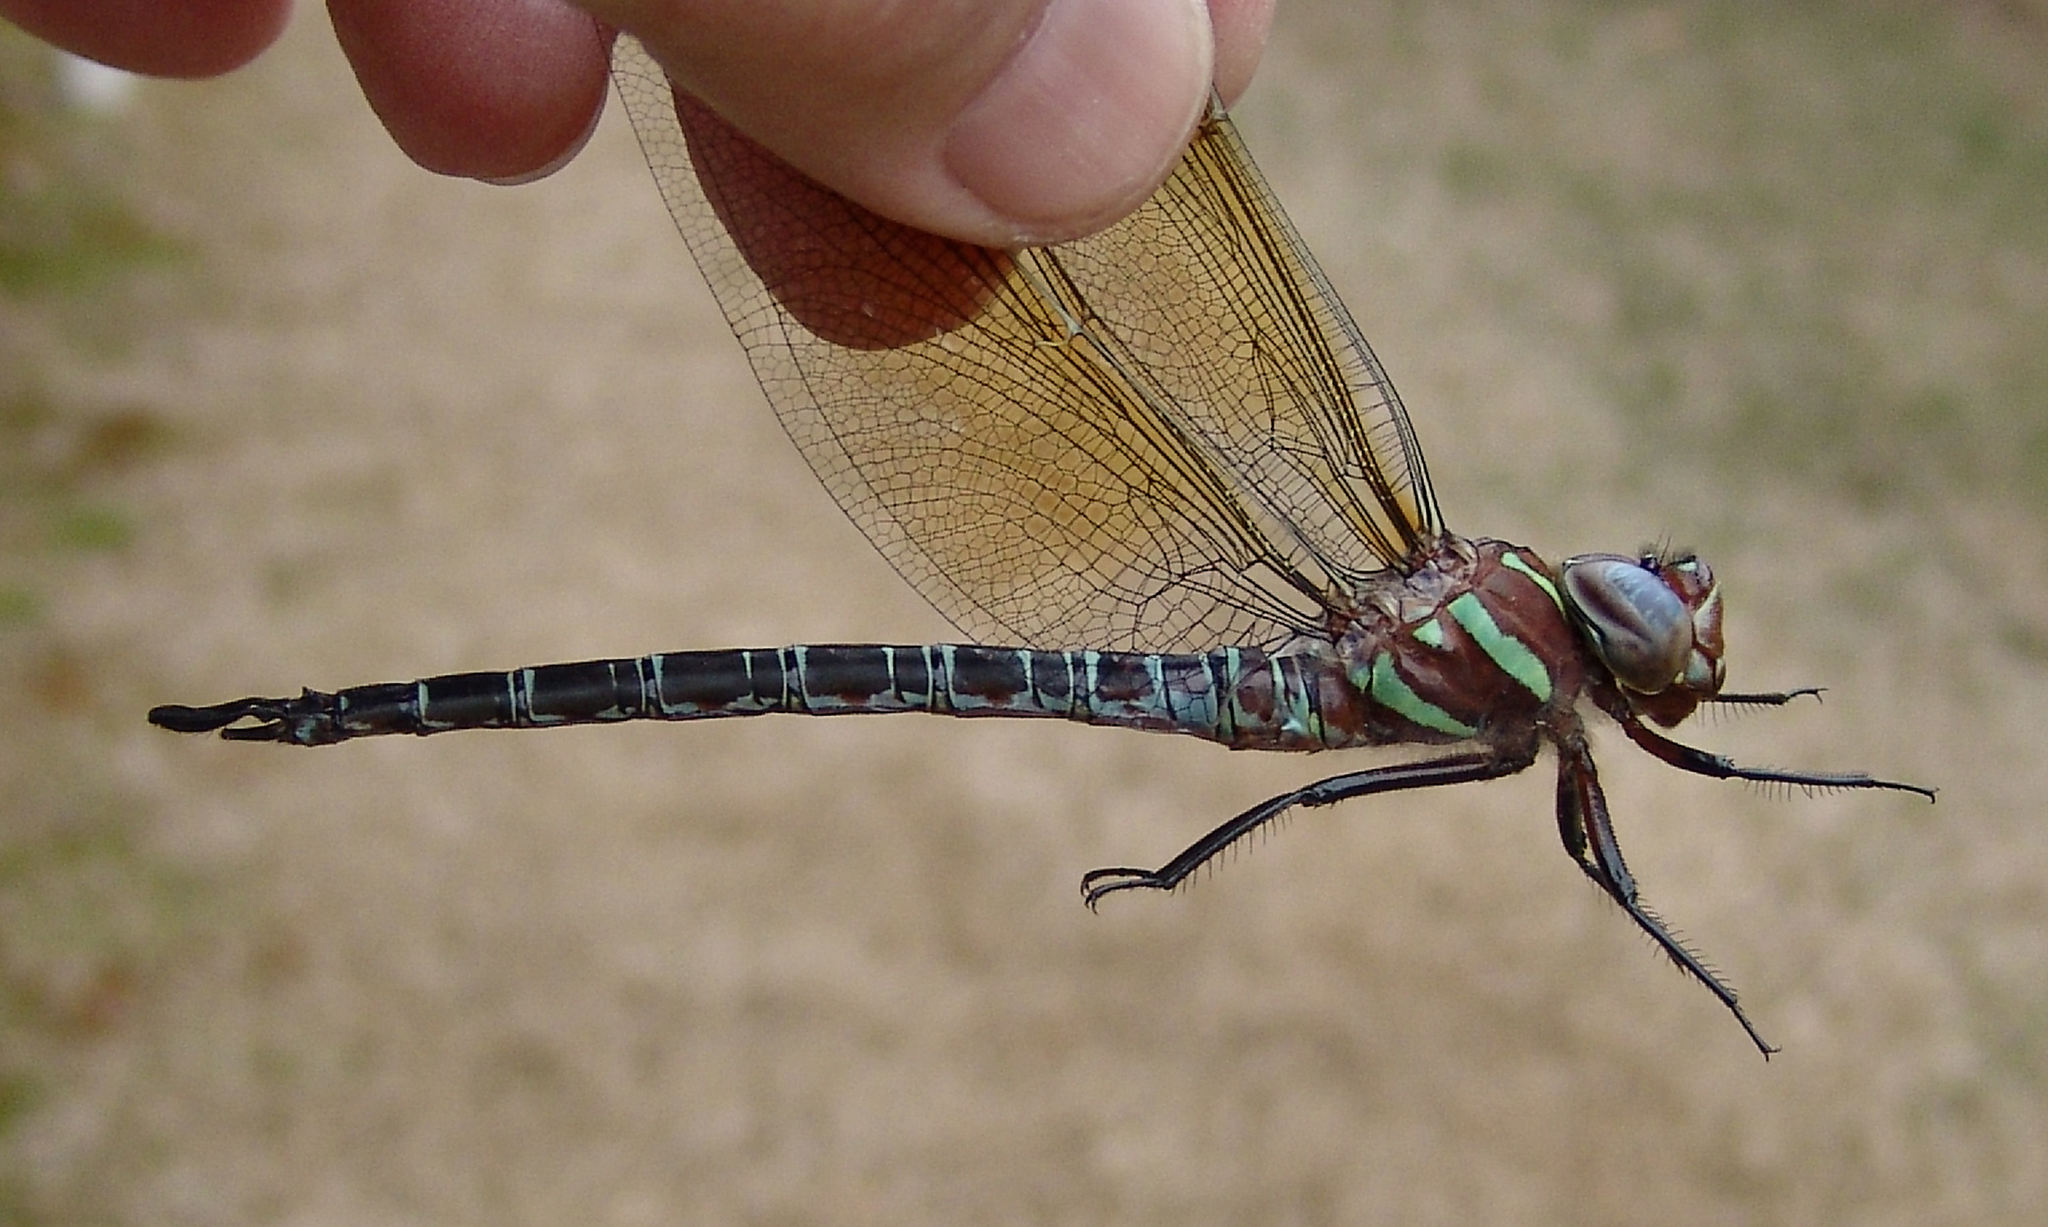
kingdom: Animalia
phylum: Arthropoda
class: Insecta
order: Odonata
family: Aeshnidae
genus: Epiaeschna
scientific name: Epiaeschna heros
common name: Swamp darner
